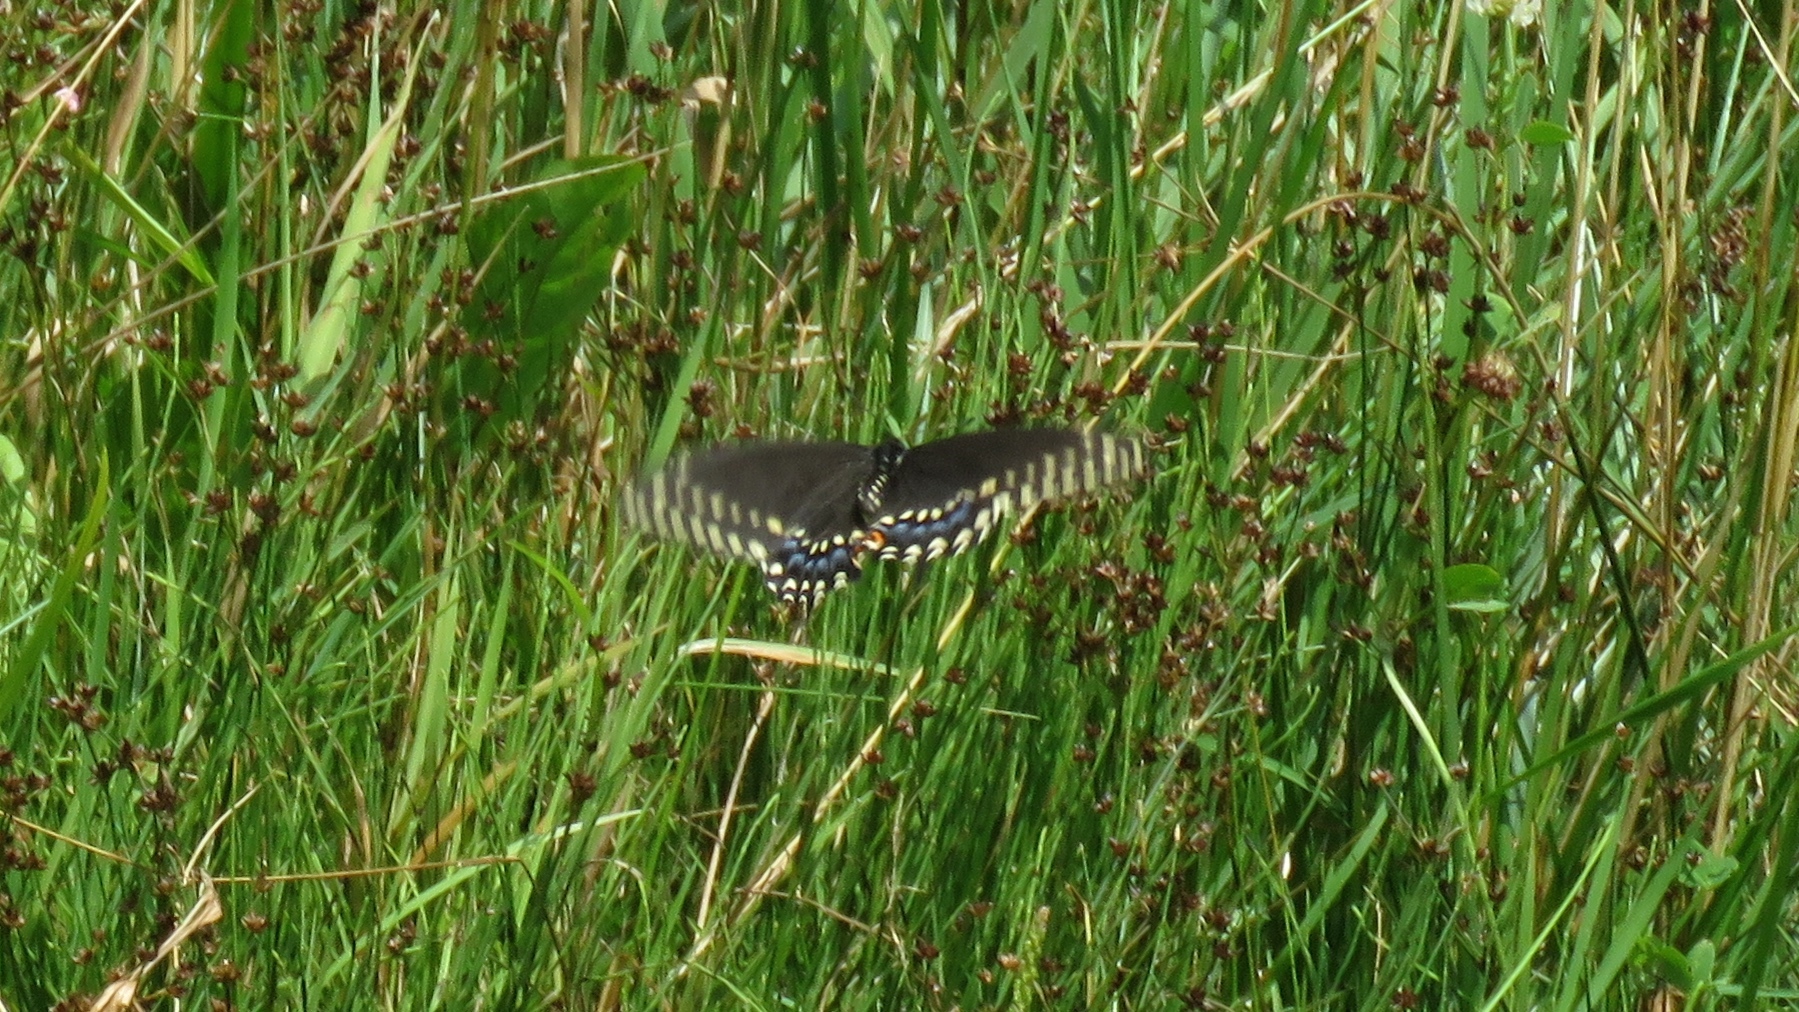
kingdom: Animalia
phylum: Arthropoda
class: Insecta
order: Lepidoptera
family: Papilionidae
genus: Papilio
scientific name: Papilio polyxenes
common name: Black swallowtail
